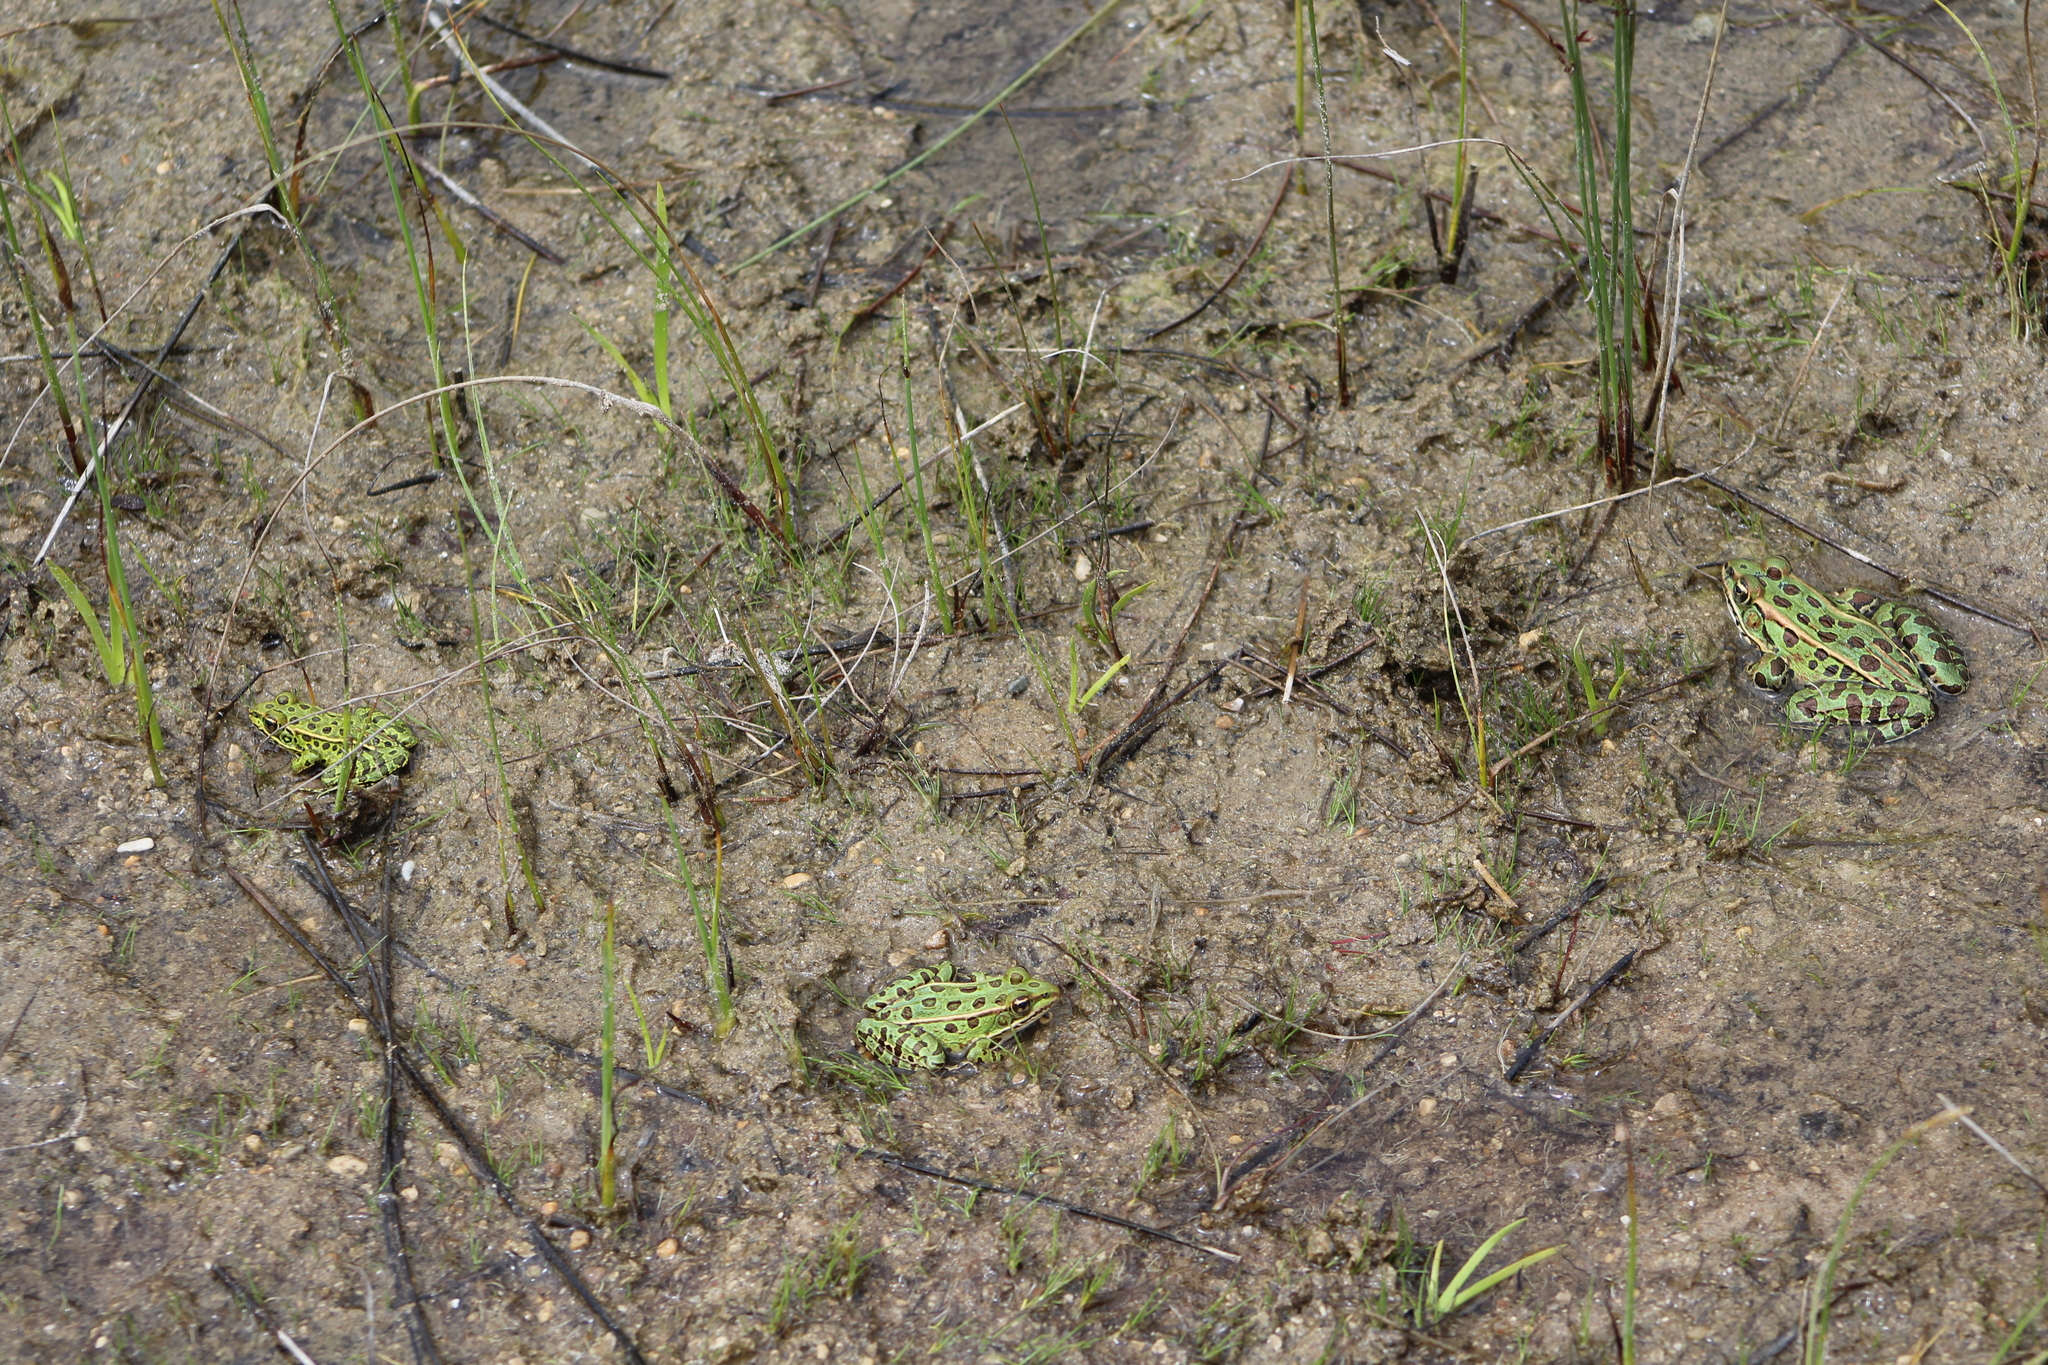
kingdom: Animalia
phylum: Chordata
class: Amphibia
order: Anura
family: Ranidae
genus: Lithobates
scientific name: Lithobates pipiens
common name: Northern leopard frog
